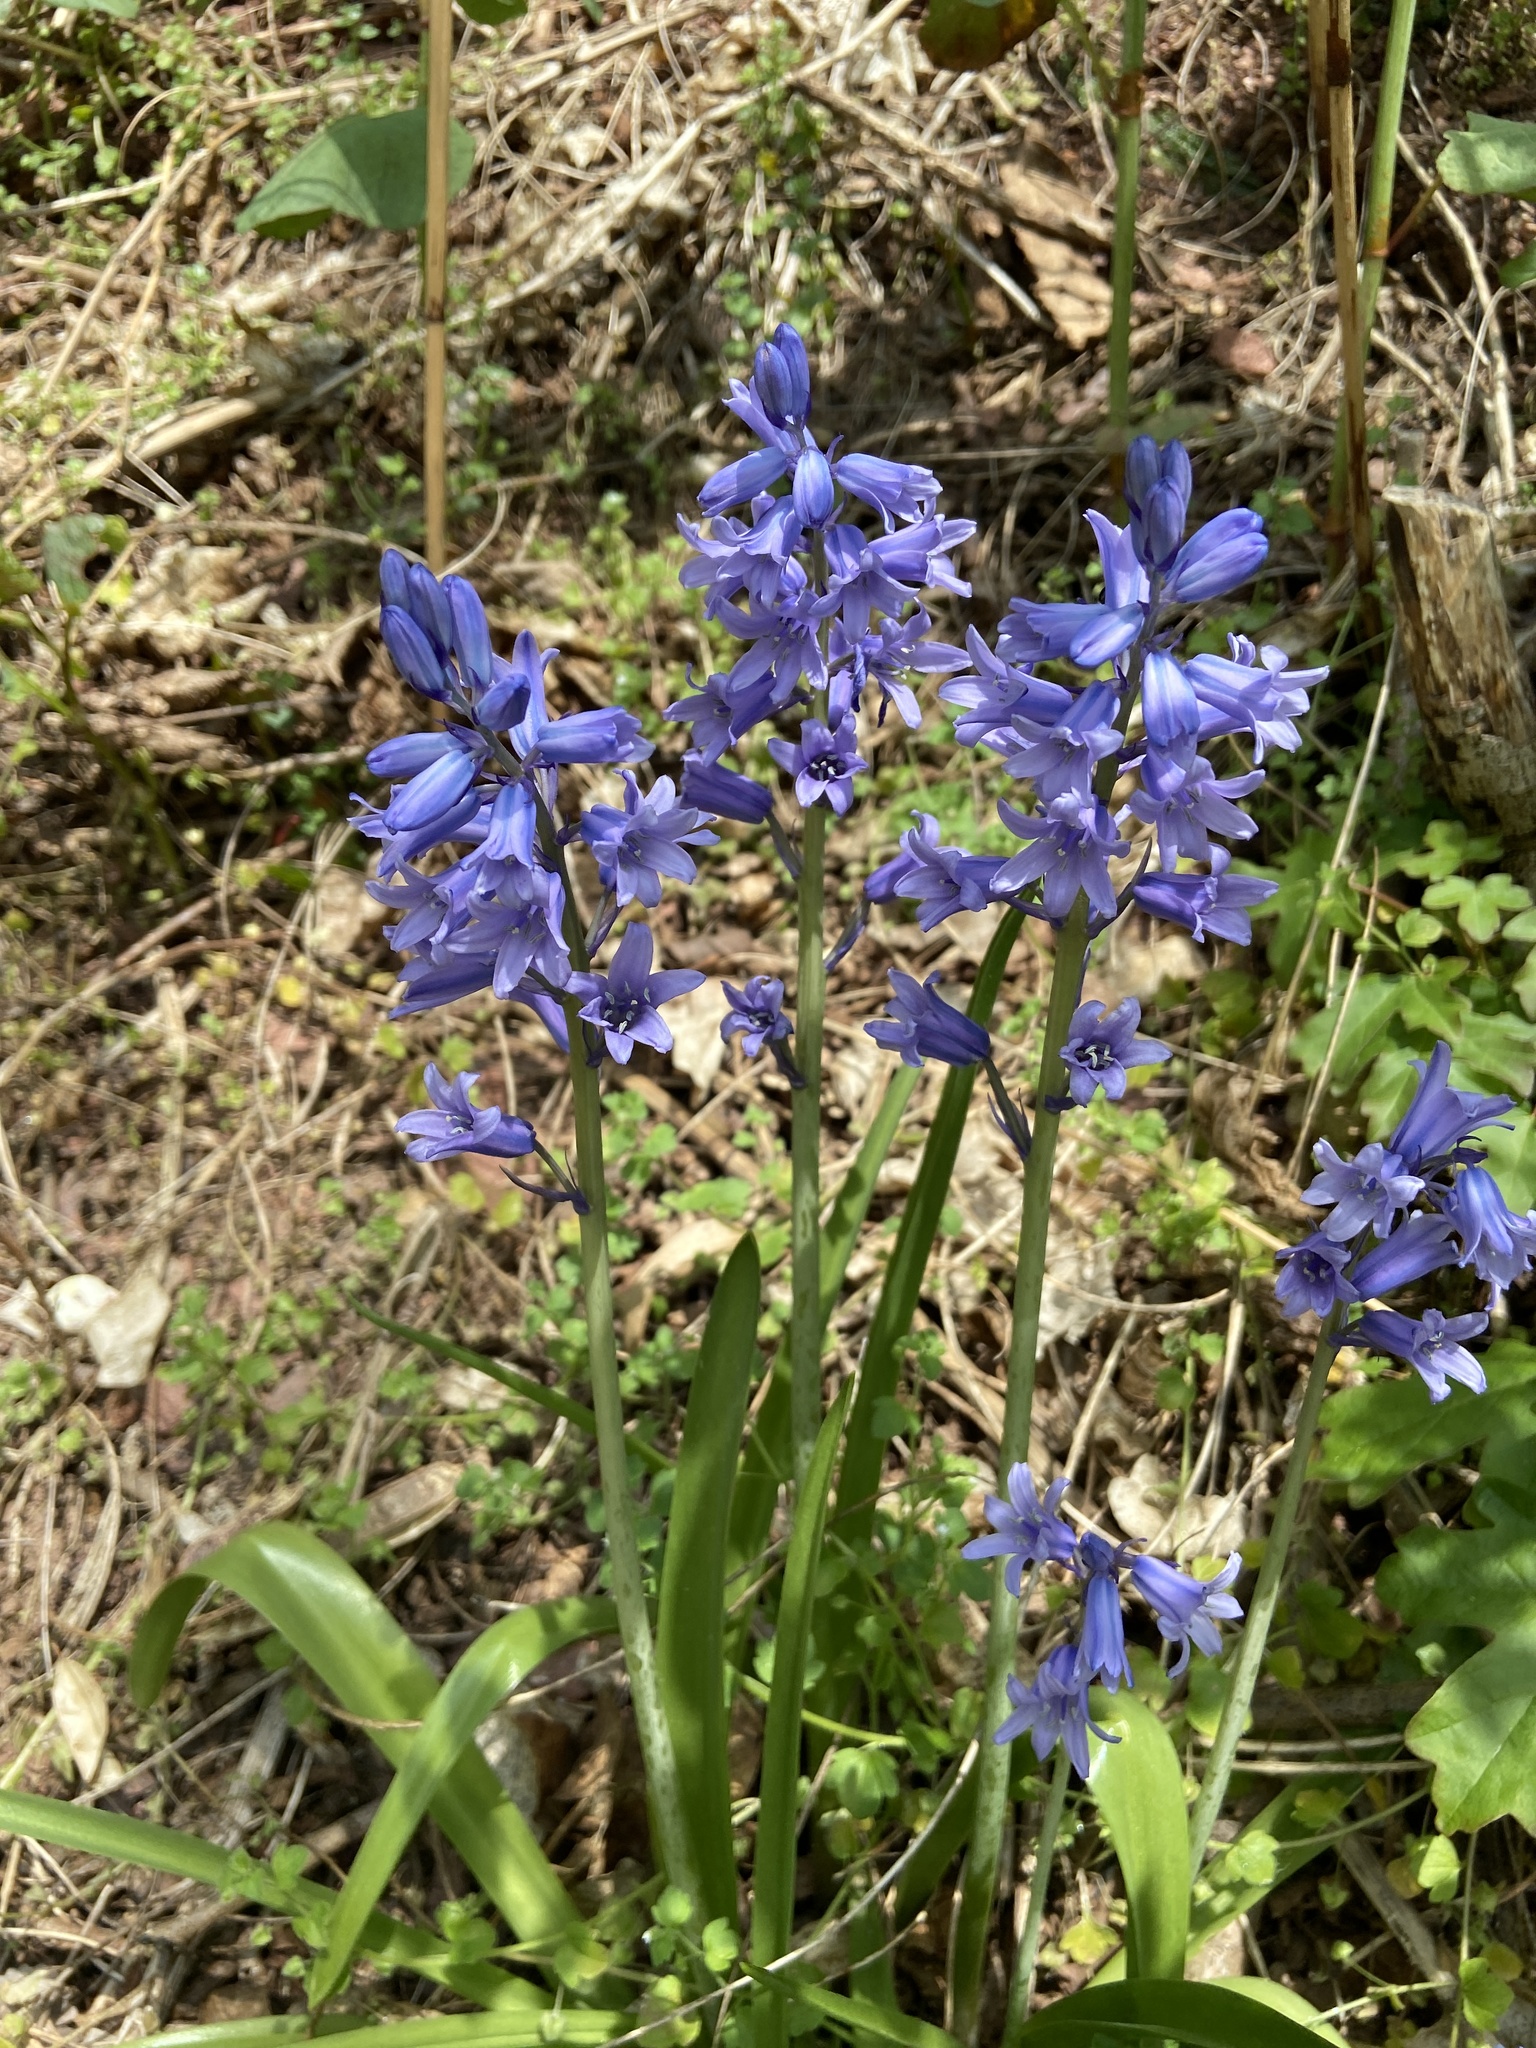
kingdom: Plantae
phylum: Tracheophyta
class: Liliopsida
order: Asparagales
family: Asparagaceae
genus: Hyacinthoides
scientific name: Hyacinthoides hispanica
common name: Spanish bluebell
